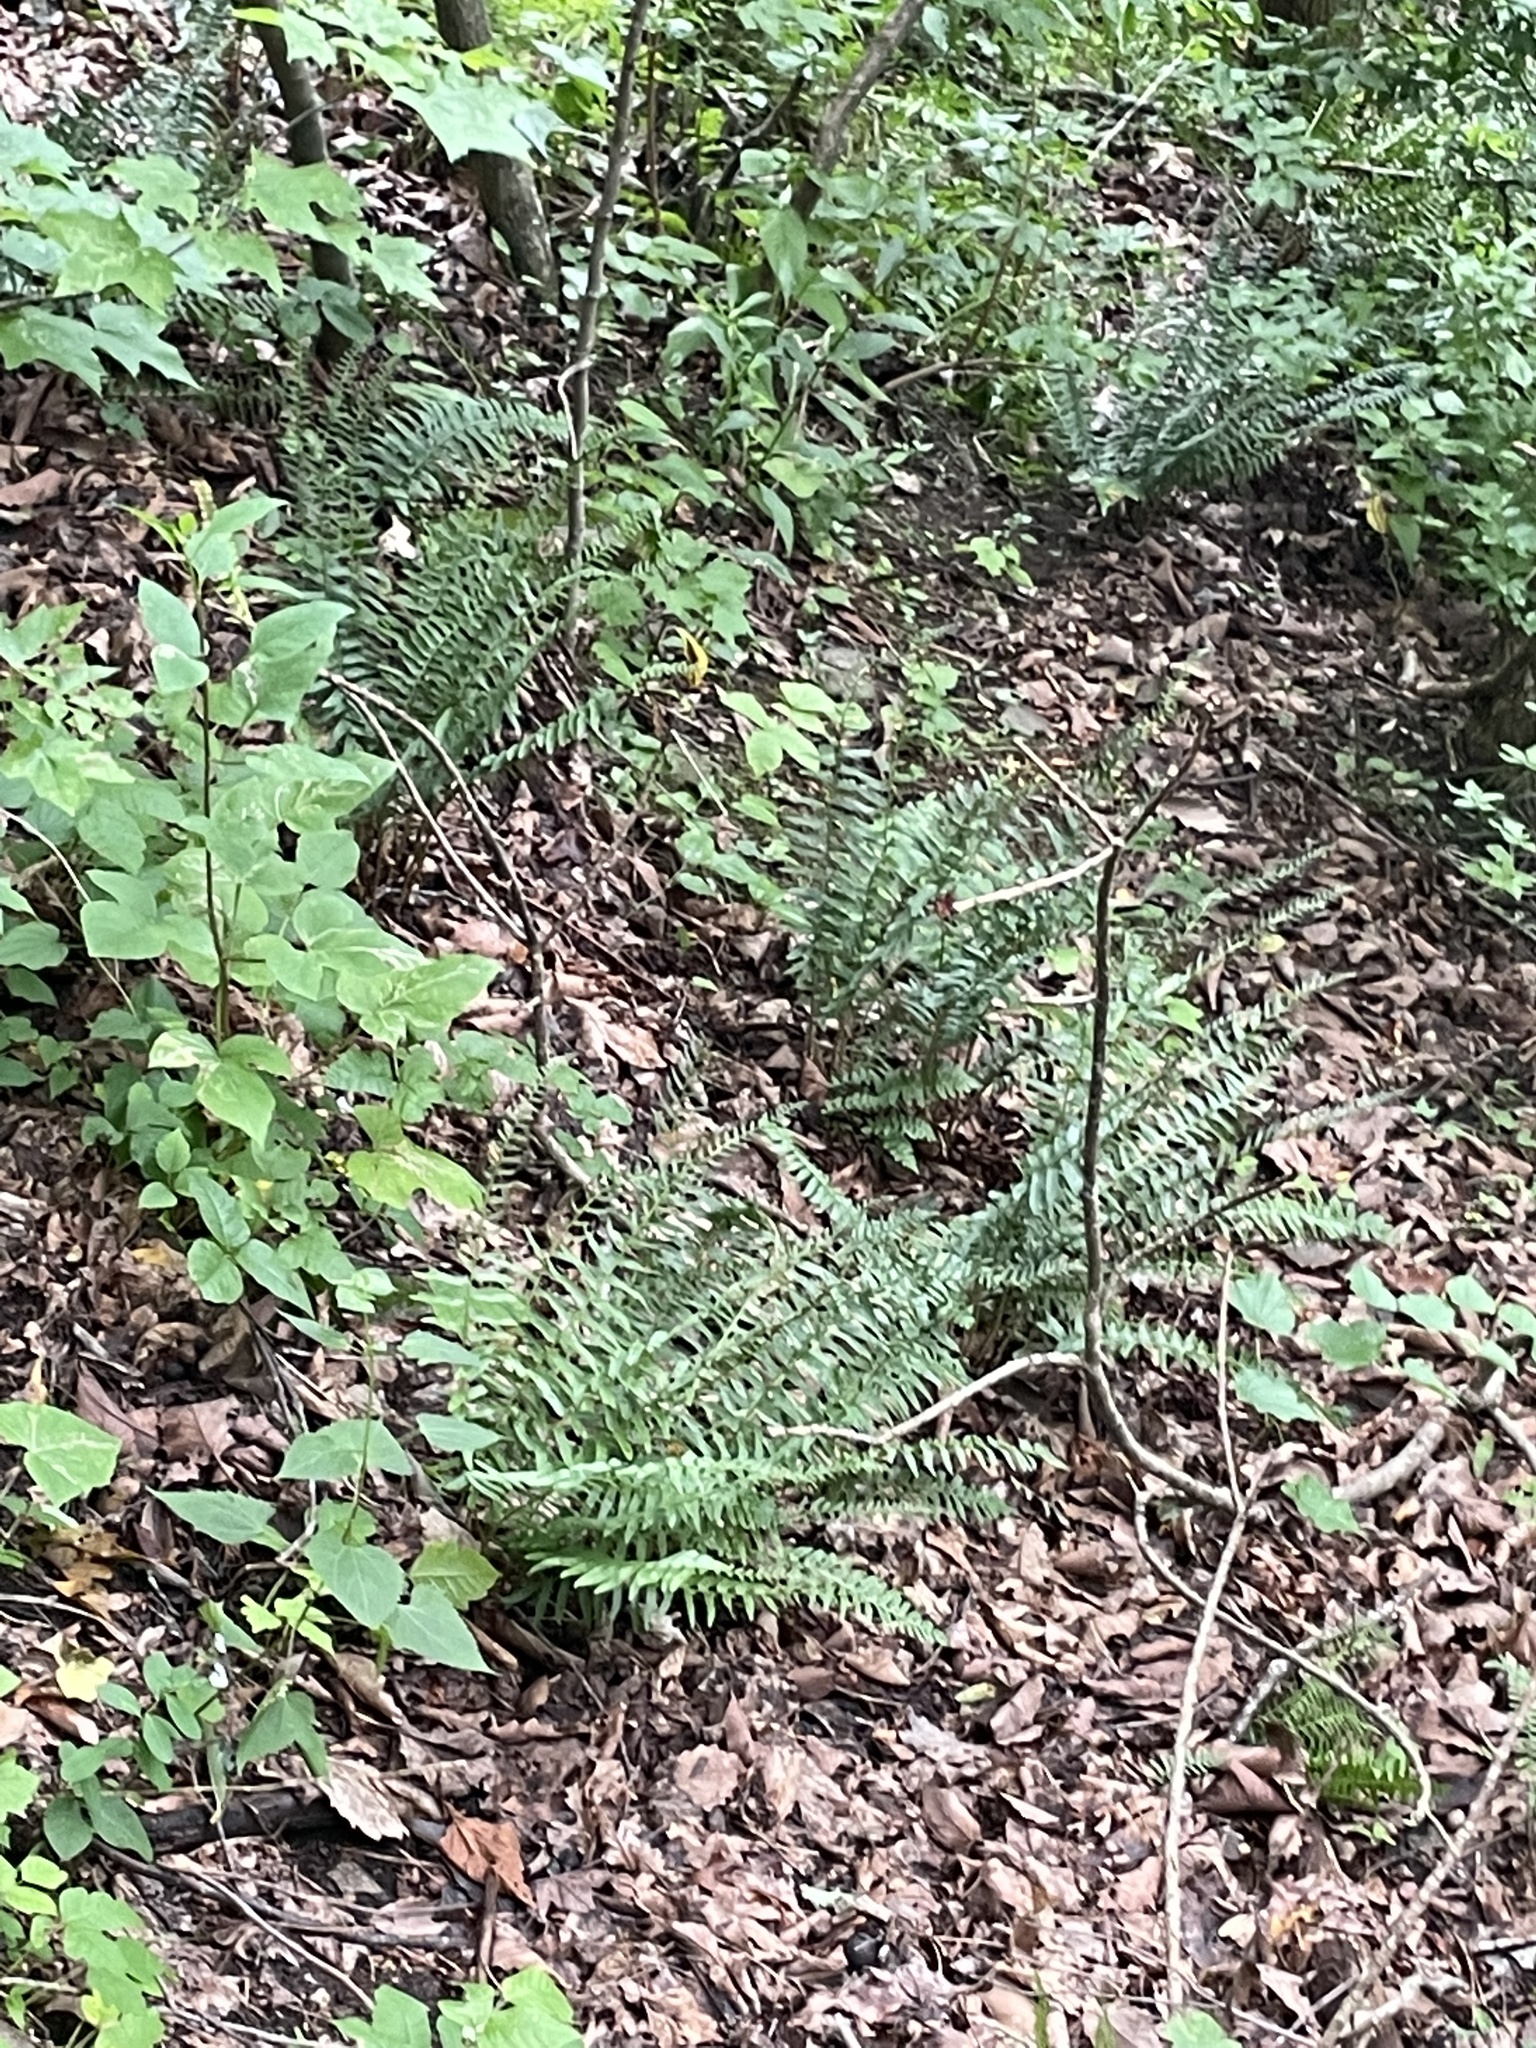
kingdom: Plantae
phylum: Tracheophyta
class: Polypodiopsida
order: Polypodiales
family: Dryopteridaceae
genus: Polystichum
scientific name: Polystichum acrostichoides
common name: Christmas fern
